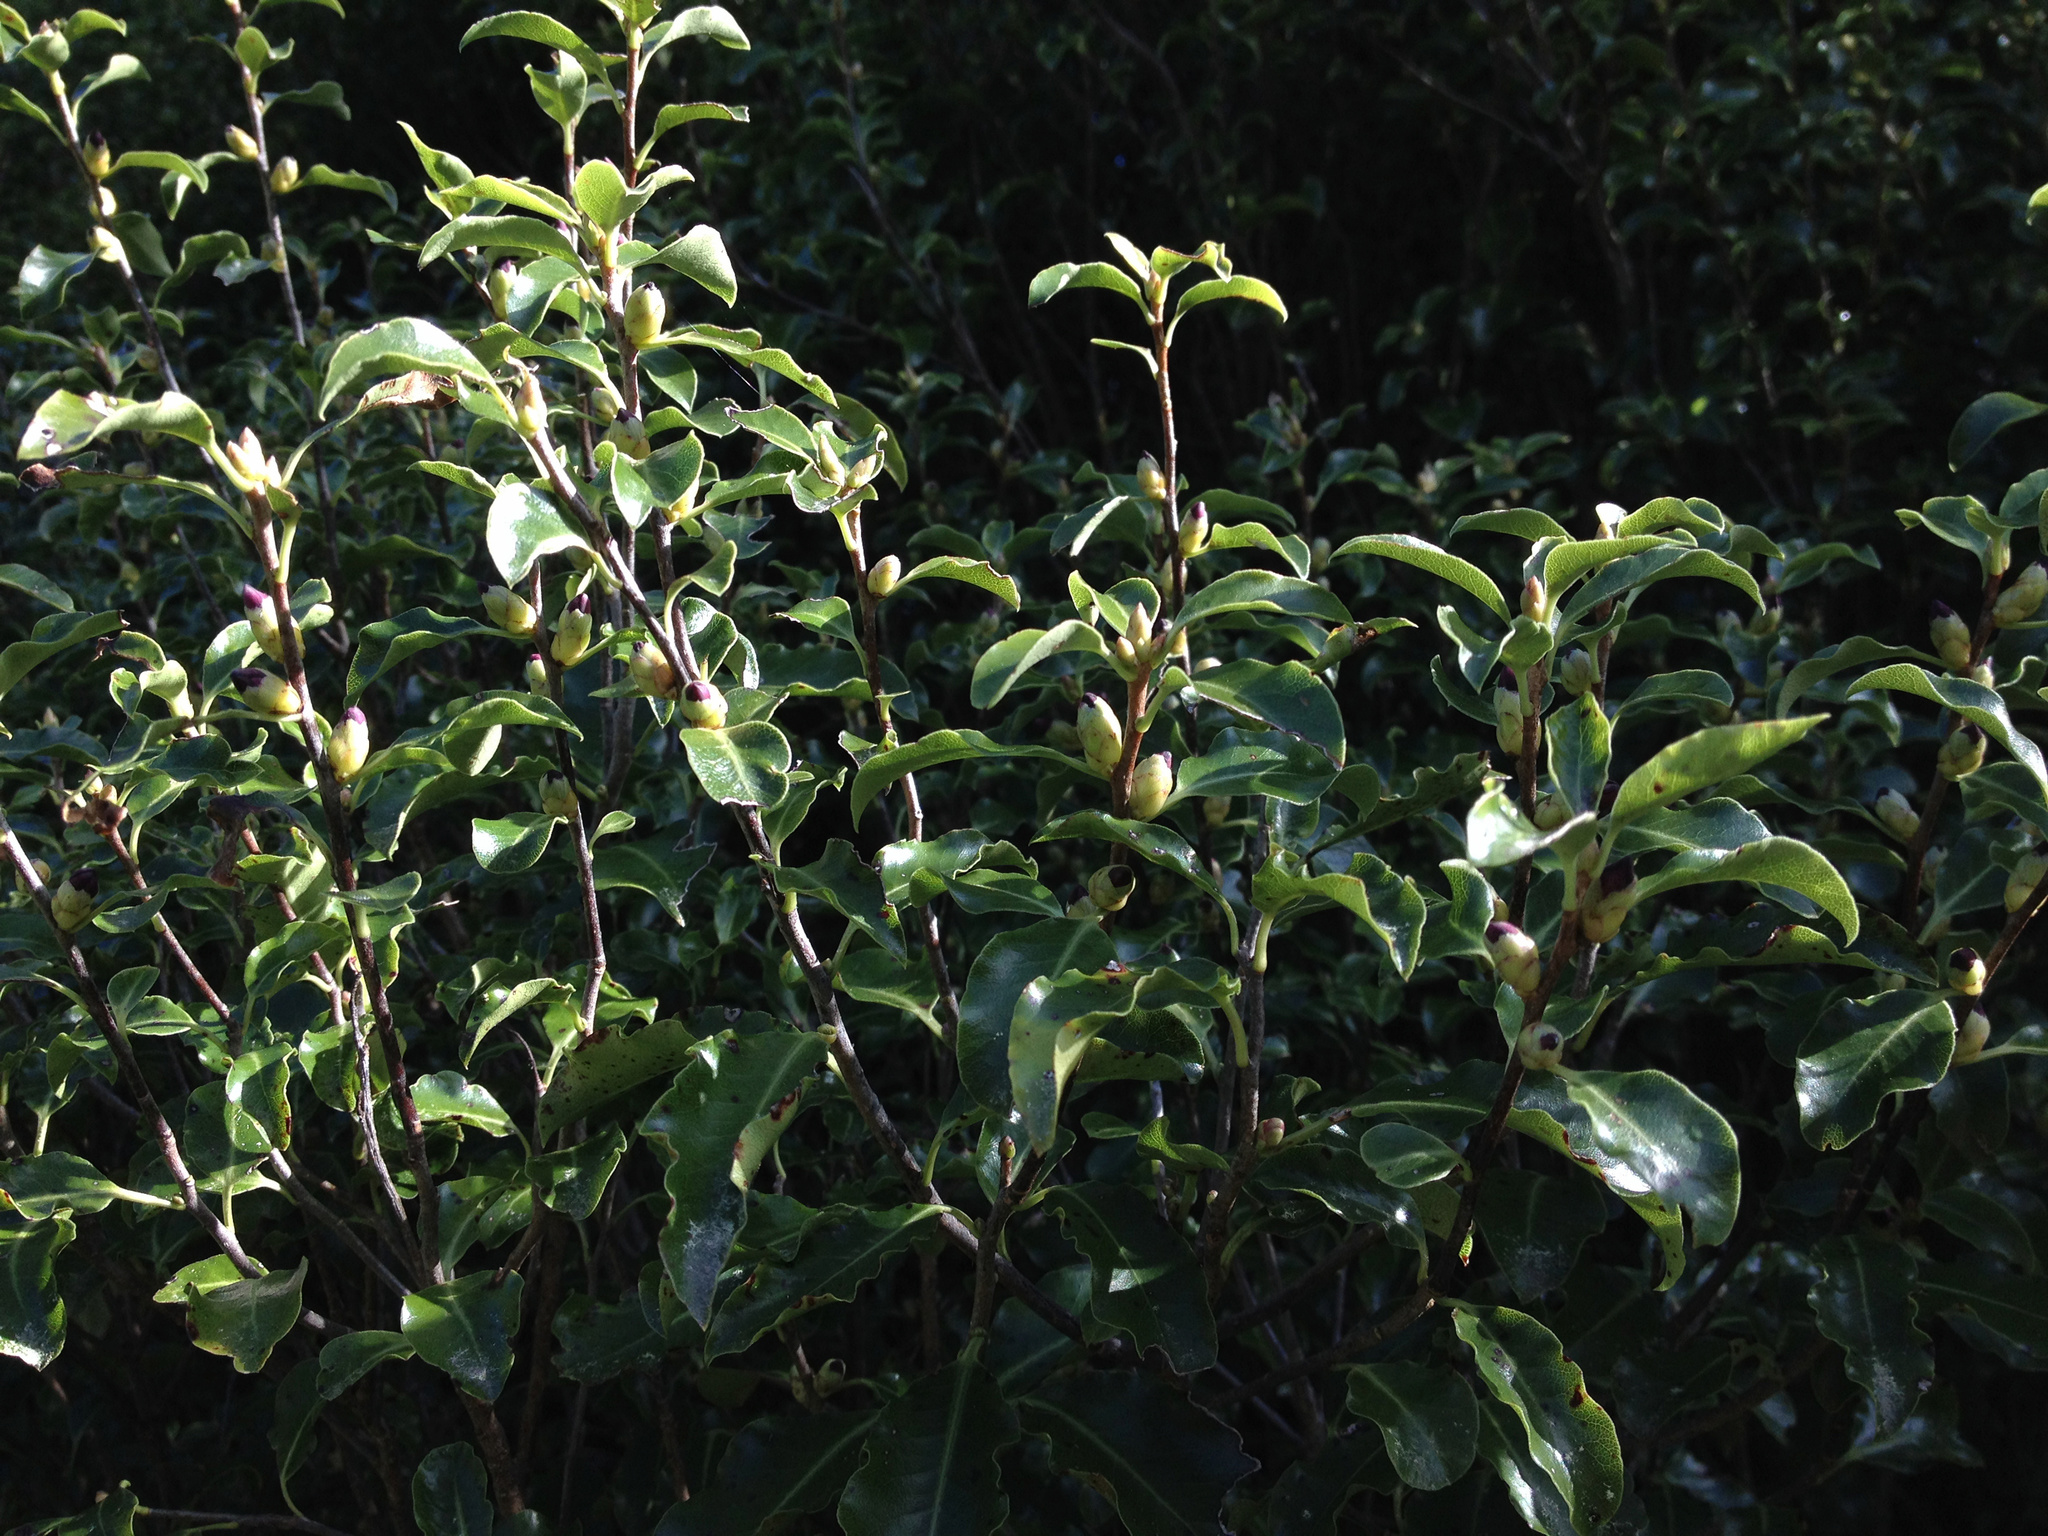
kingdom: Plantae
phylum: Tracheophyta
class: Magnoliopsida
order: Apiales
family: Pittosporaceae
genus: Pittosporum
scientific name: Pittosporum tenuifolium
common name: Kohuhu
